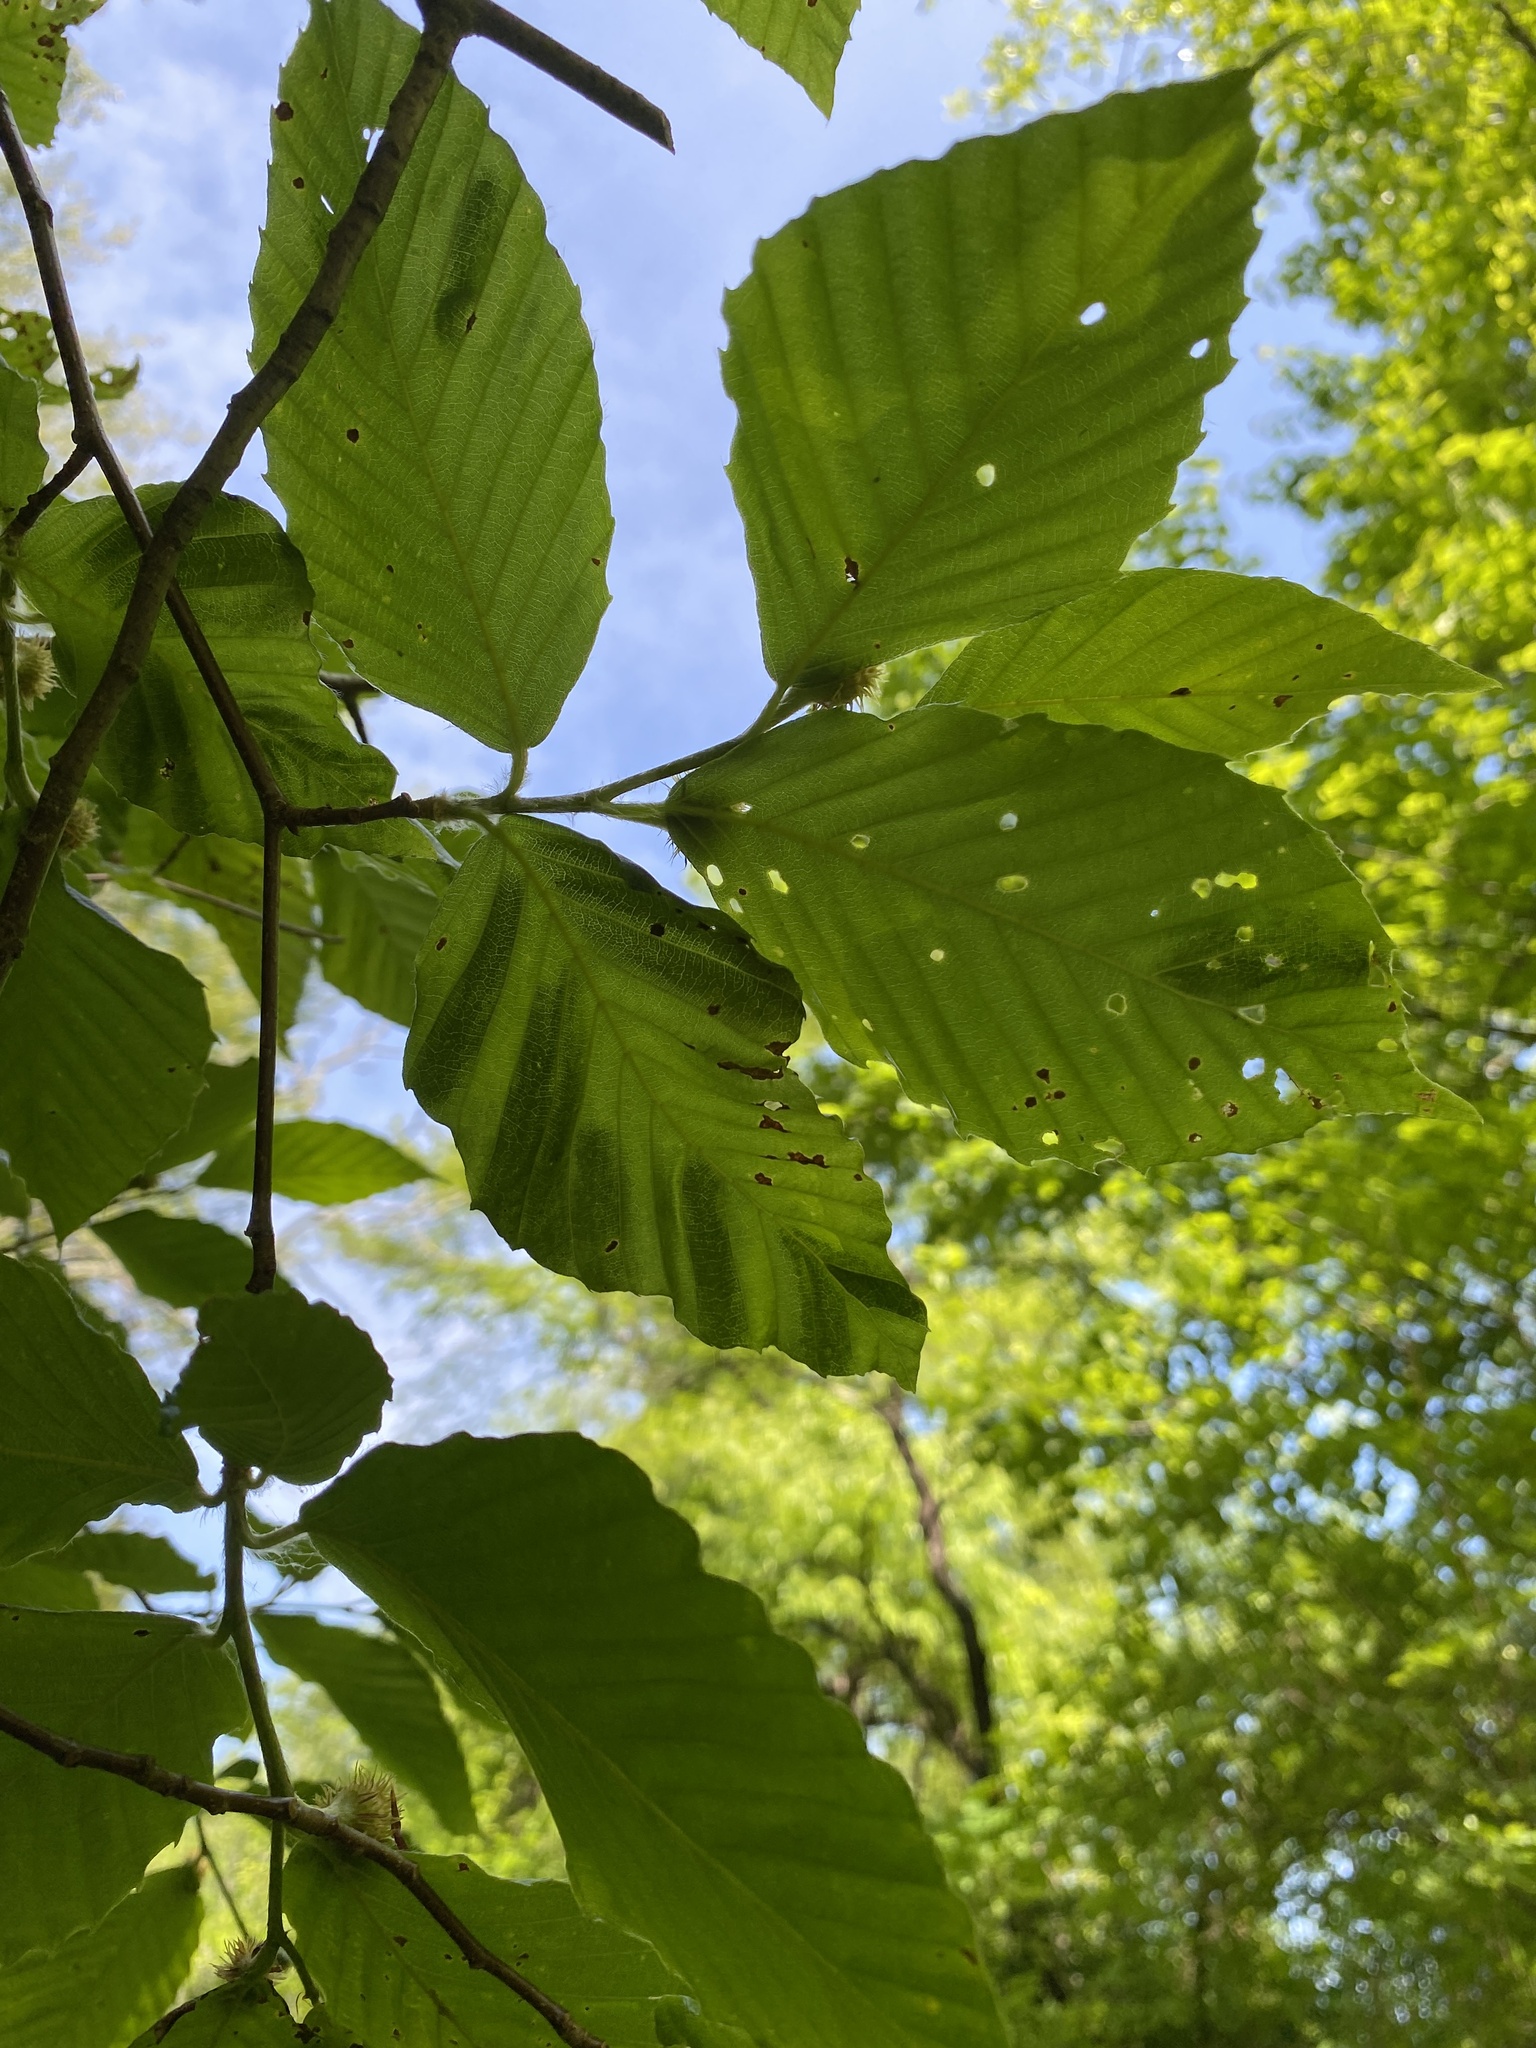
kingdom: Animalia
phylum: Nematoda
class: Chromadorea
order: Rhabditida
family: Anguinidae
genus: Litylenchus
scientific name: Litylenchus crenatae
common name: Beech leaf disease
